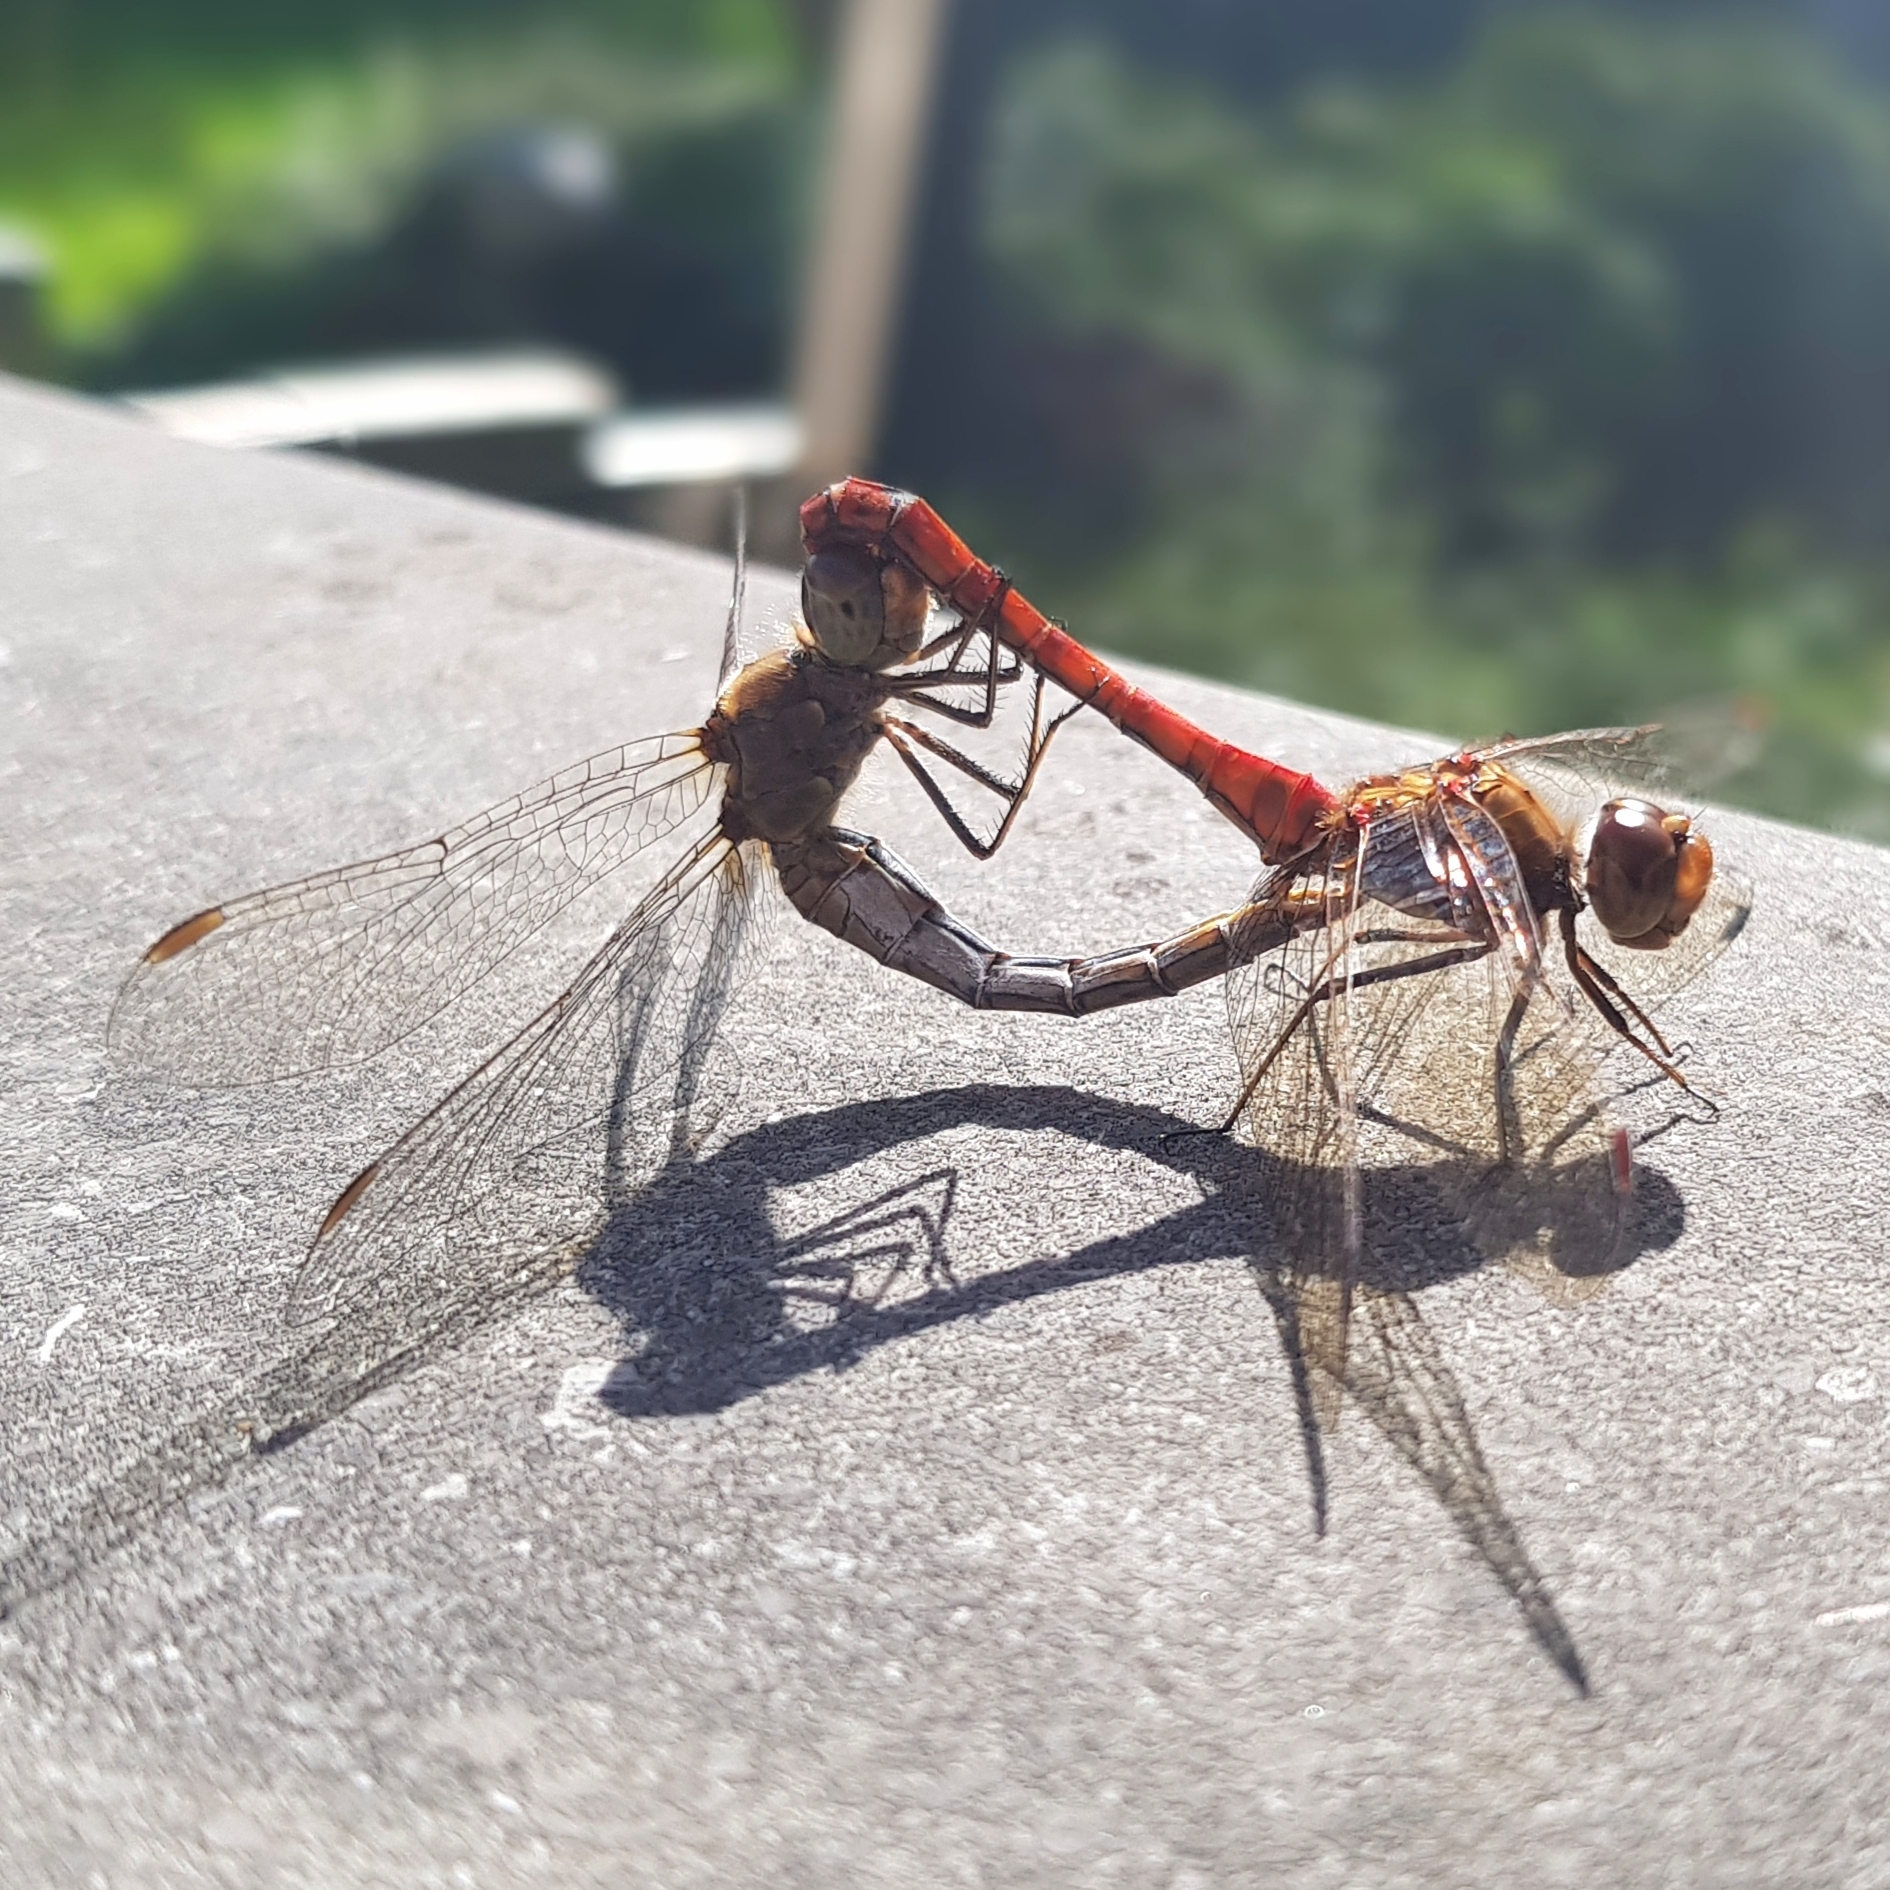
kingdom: Animalia
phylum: Arthropoda
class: Insecta
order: Odonata
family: Libellulidae
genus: Sympetrum
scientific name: Sympetrum meridionale
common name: Southern darter
